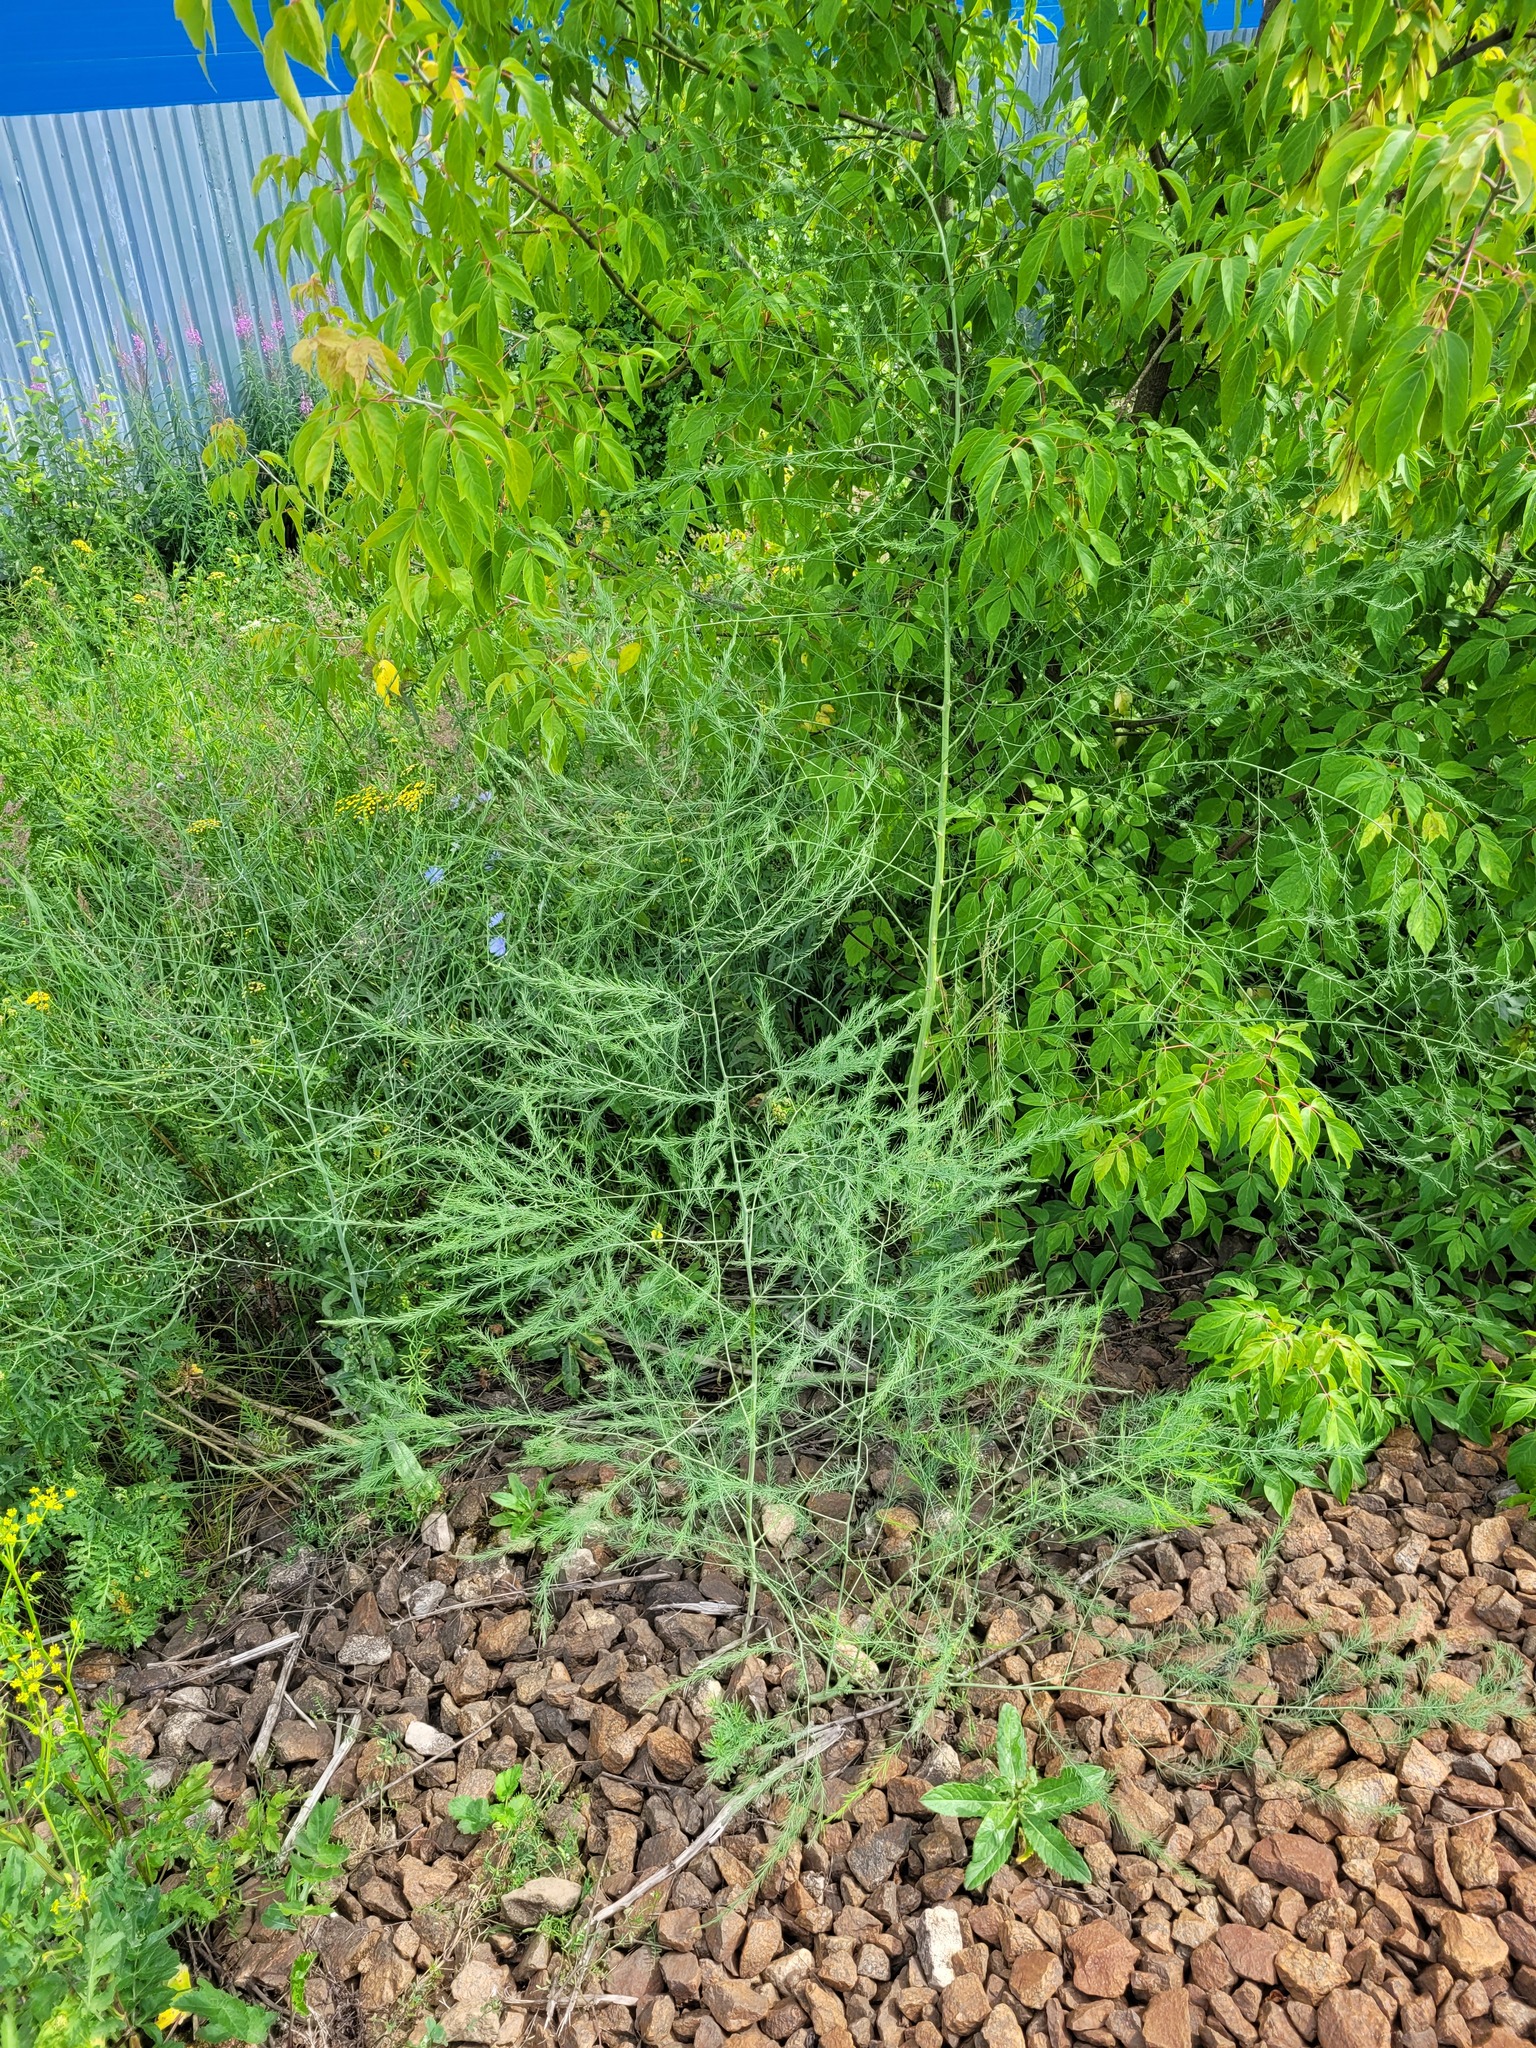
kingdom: Plantae
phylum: Tracheophyta
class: Liliopsida
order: Asparagales
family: Asparagaceae
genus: Asparagus
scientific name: Asparagus officinalis
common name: Garden asparagus
